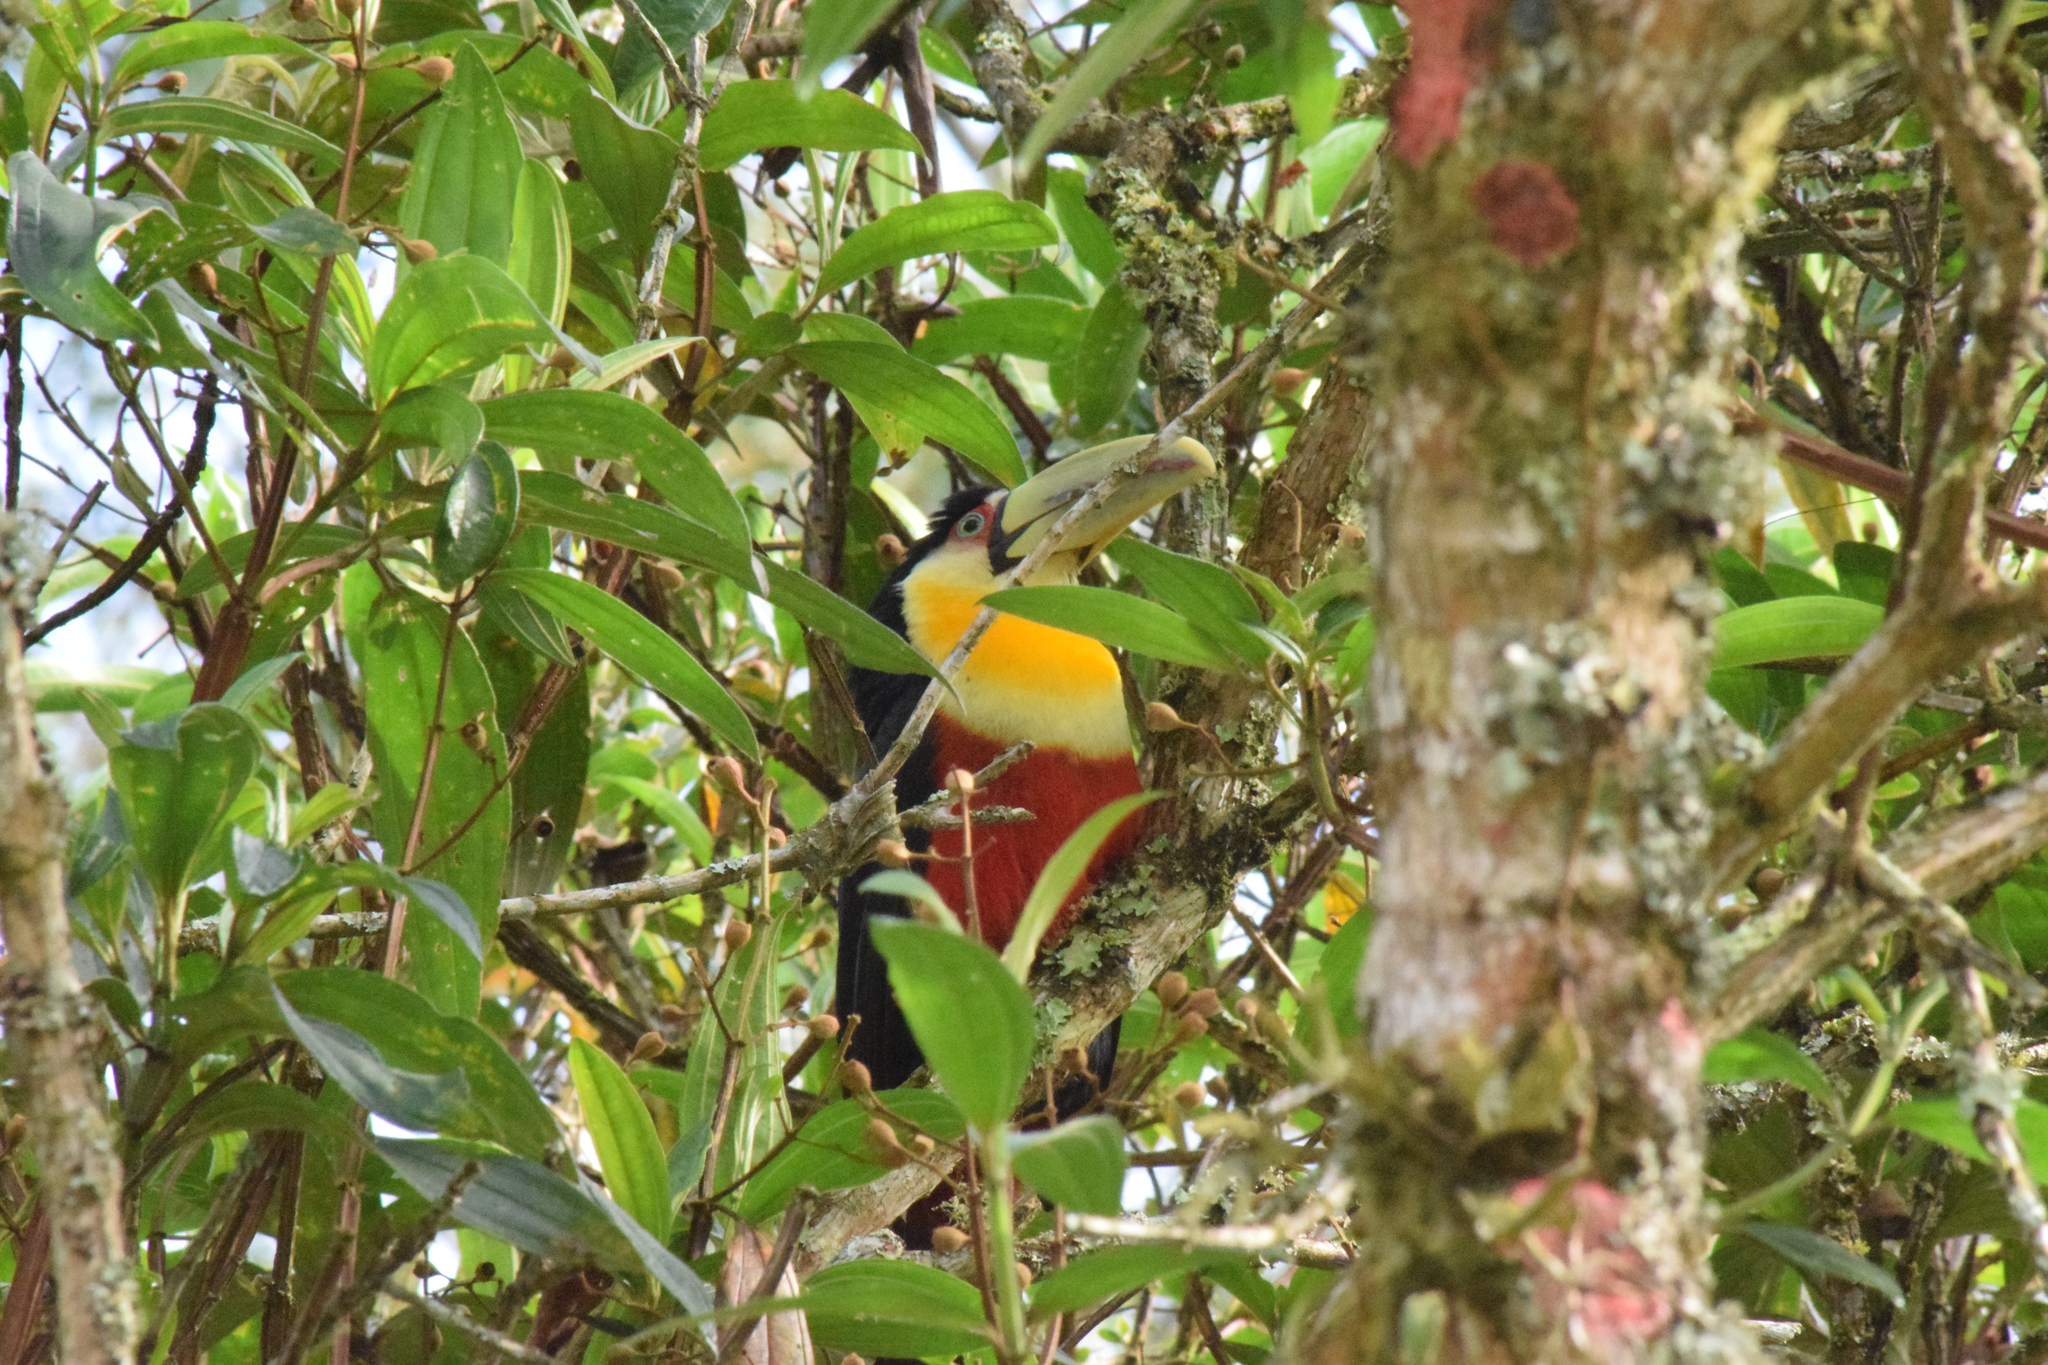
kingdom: Animalia
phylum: Chordata
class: Aves
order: Piciformes
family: Ramphastidae
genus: Ramphastos
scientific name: Ramphastos dicolorus
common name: Green-billed toucan
